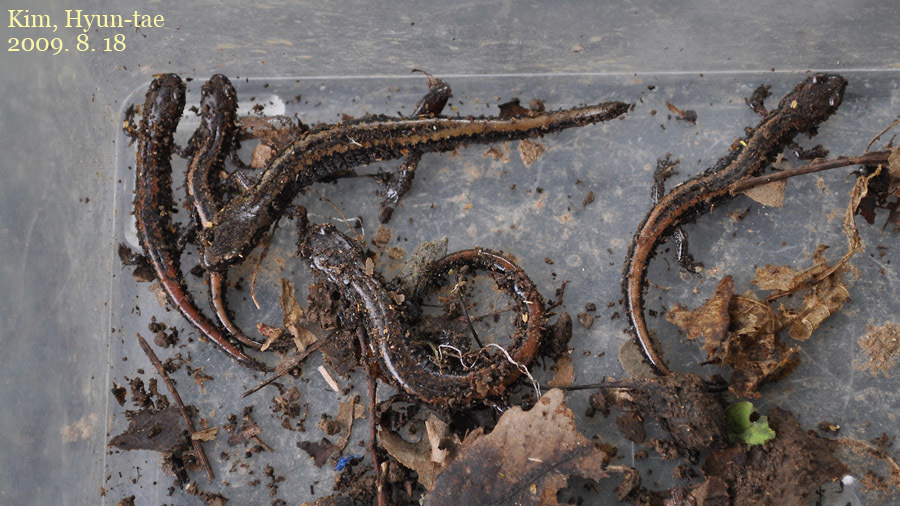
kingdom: Animalia
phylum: Chordata
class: Amphibia
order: Caudata
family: Plethodontidae
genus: Karsenia
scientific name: Karsenia koreana
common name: Korean crevice salamander
